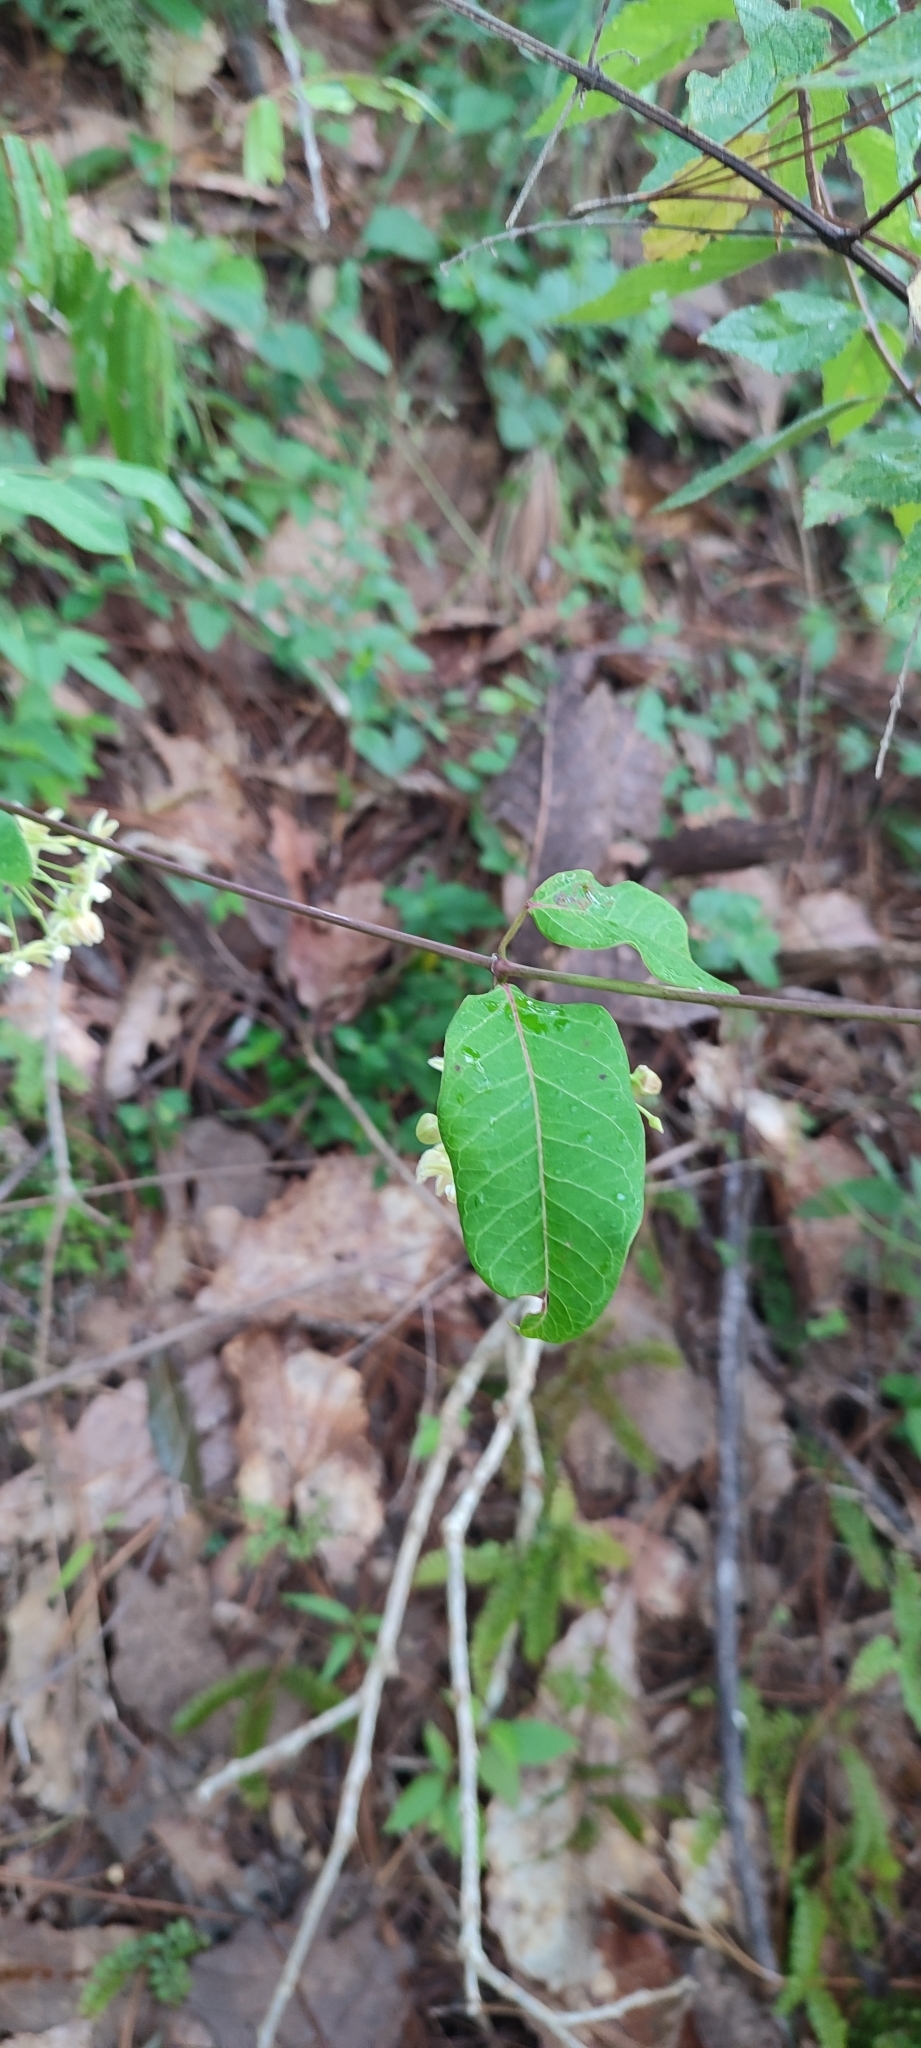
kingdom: Plantae
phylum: Tracheophyta
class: Magnoliopsida
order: Gentianales
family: Apocynaceae
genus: Vailia
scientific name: Vailia anomala
